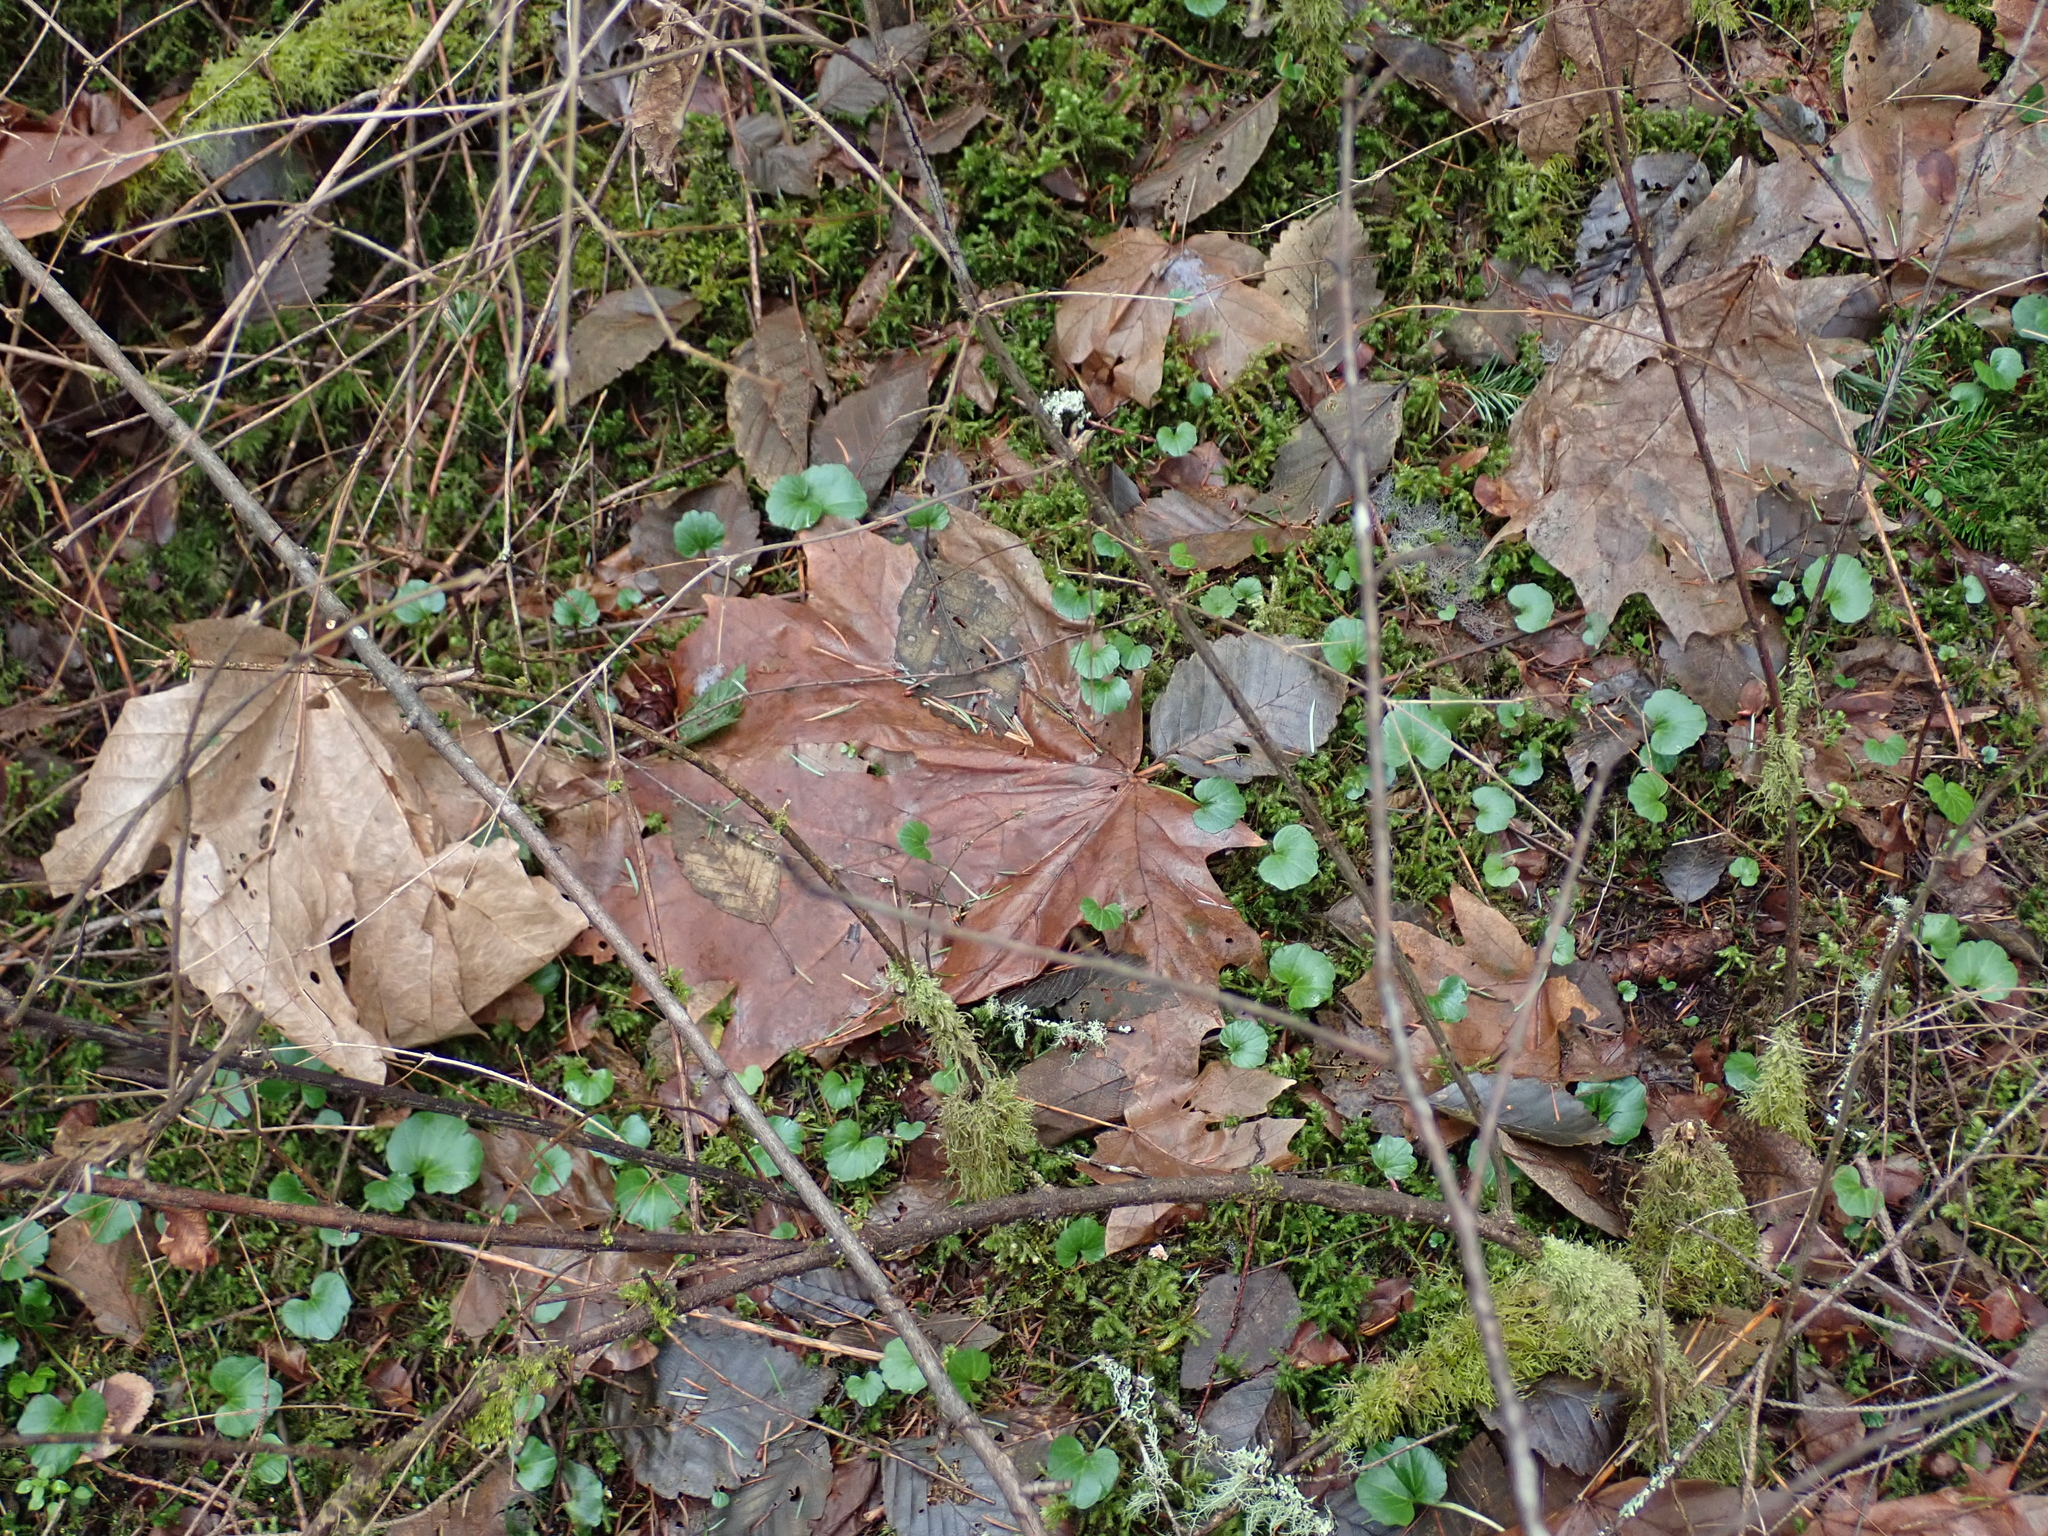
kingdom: Plantae
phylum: Tracheophyta
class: Magnoliopsida
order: Sapindales
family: Sapindaceae
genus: Acer
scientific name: Acer macrophyllum
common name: Oregon maple
